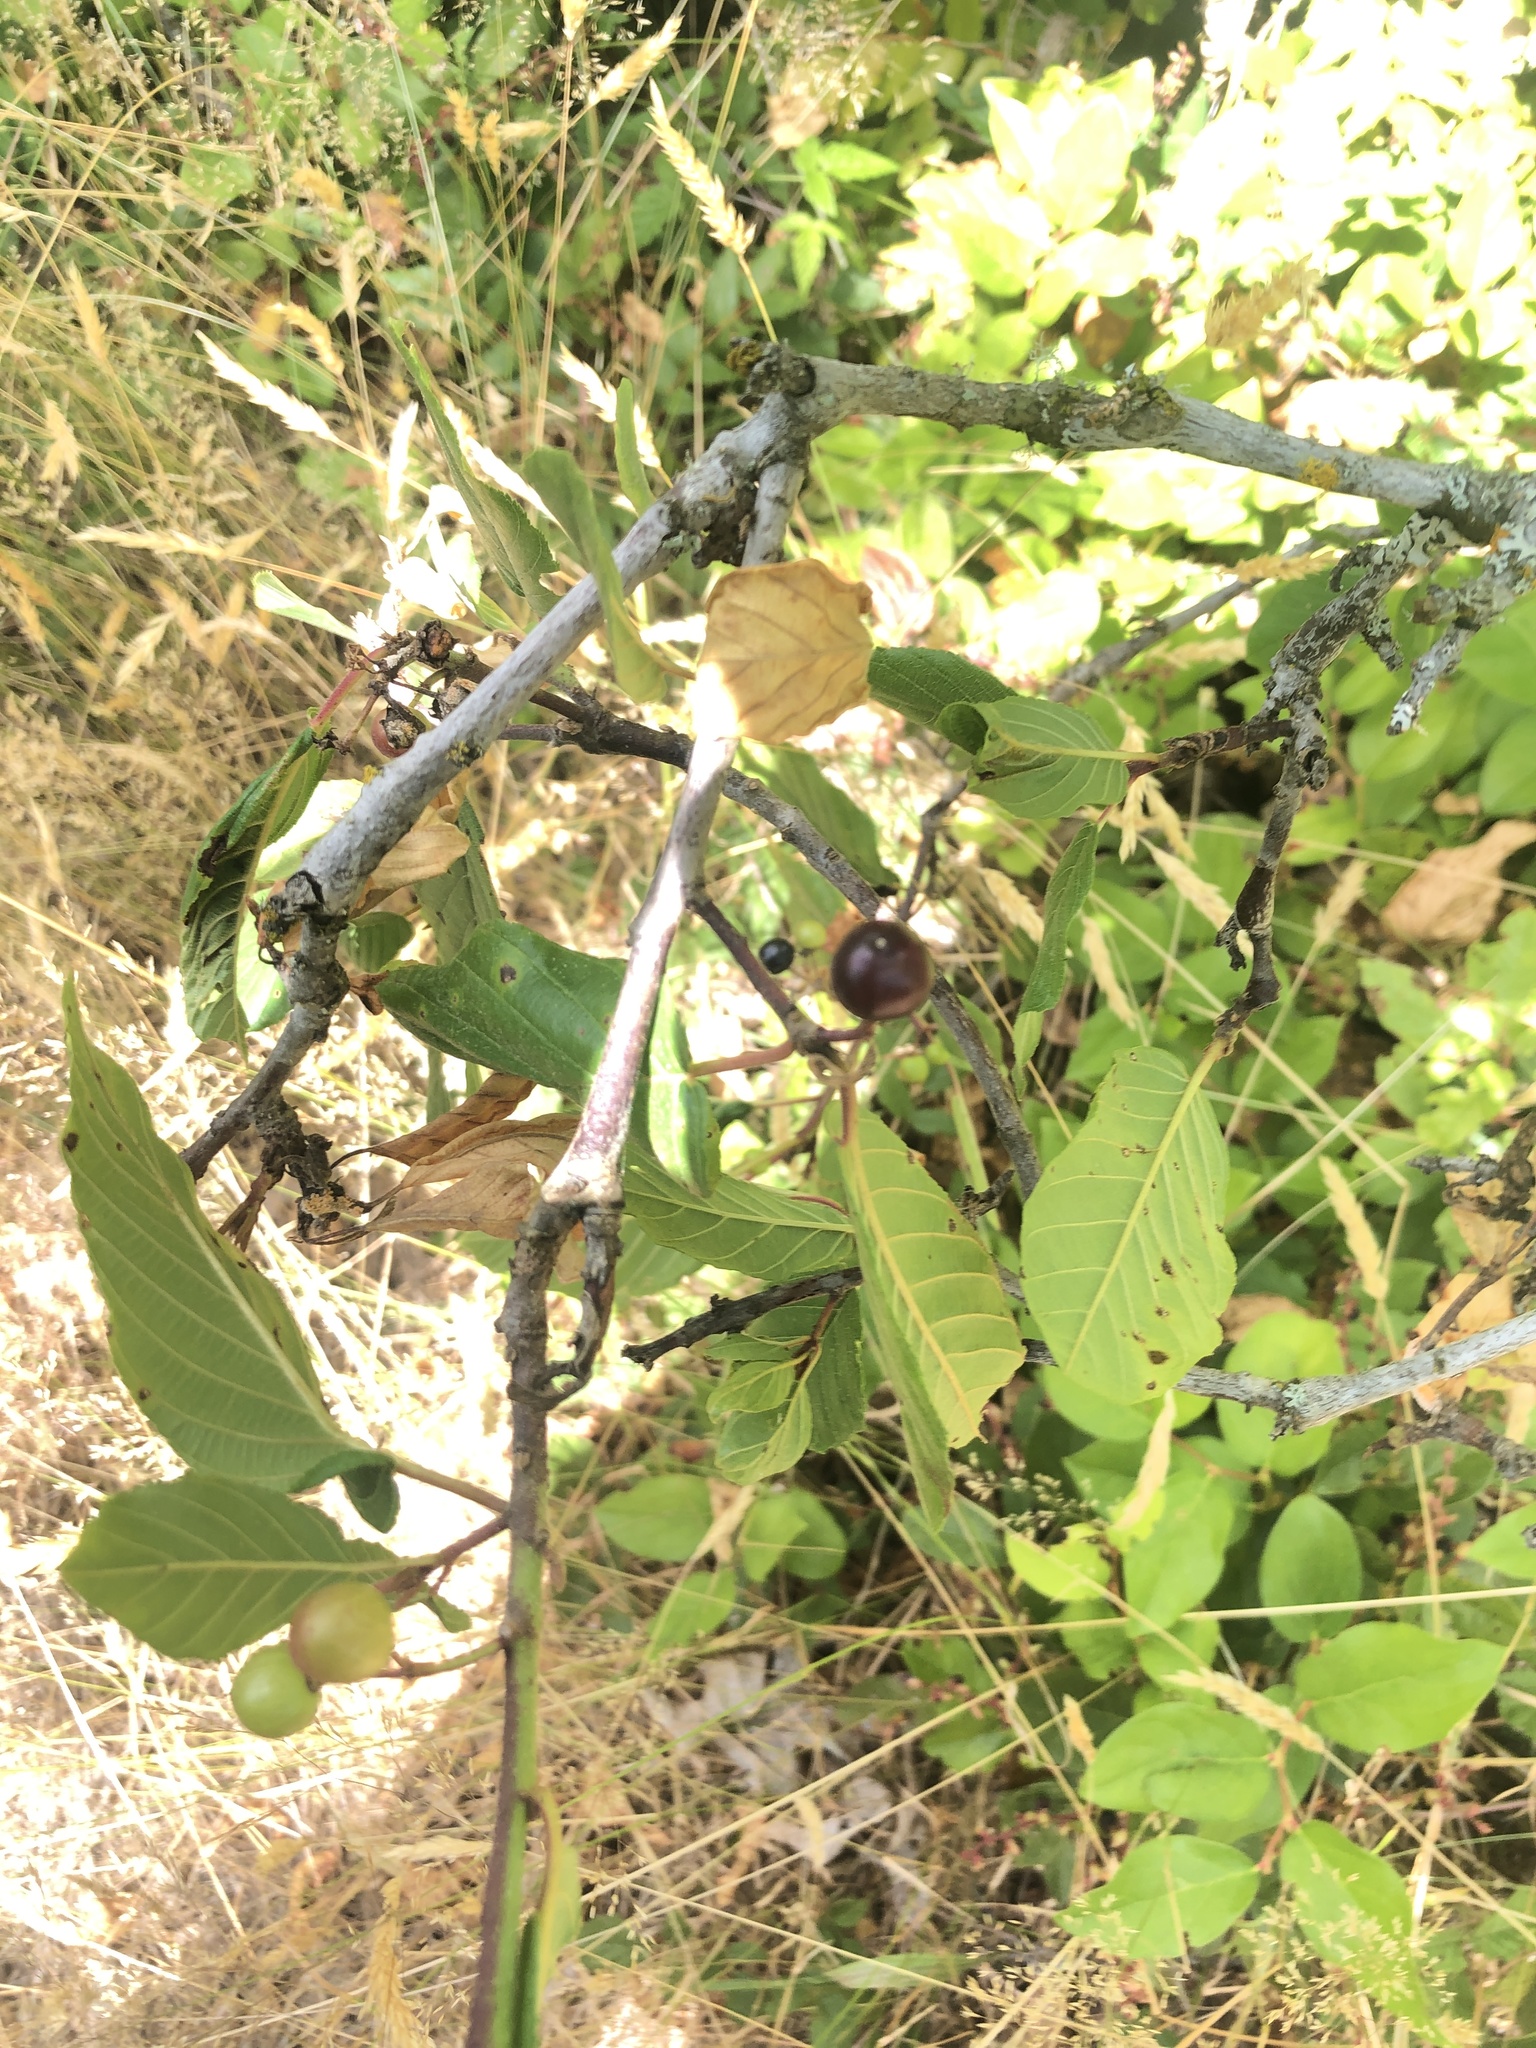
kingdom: Plantae
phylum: Tracheophyta
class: Magnoliopsida
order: Rosales
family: Rhamnaceae
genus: Frangula
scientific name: Frangula purshiana
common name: Cascara buckthorn
